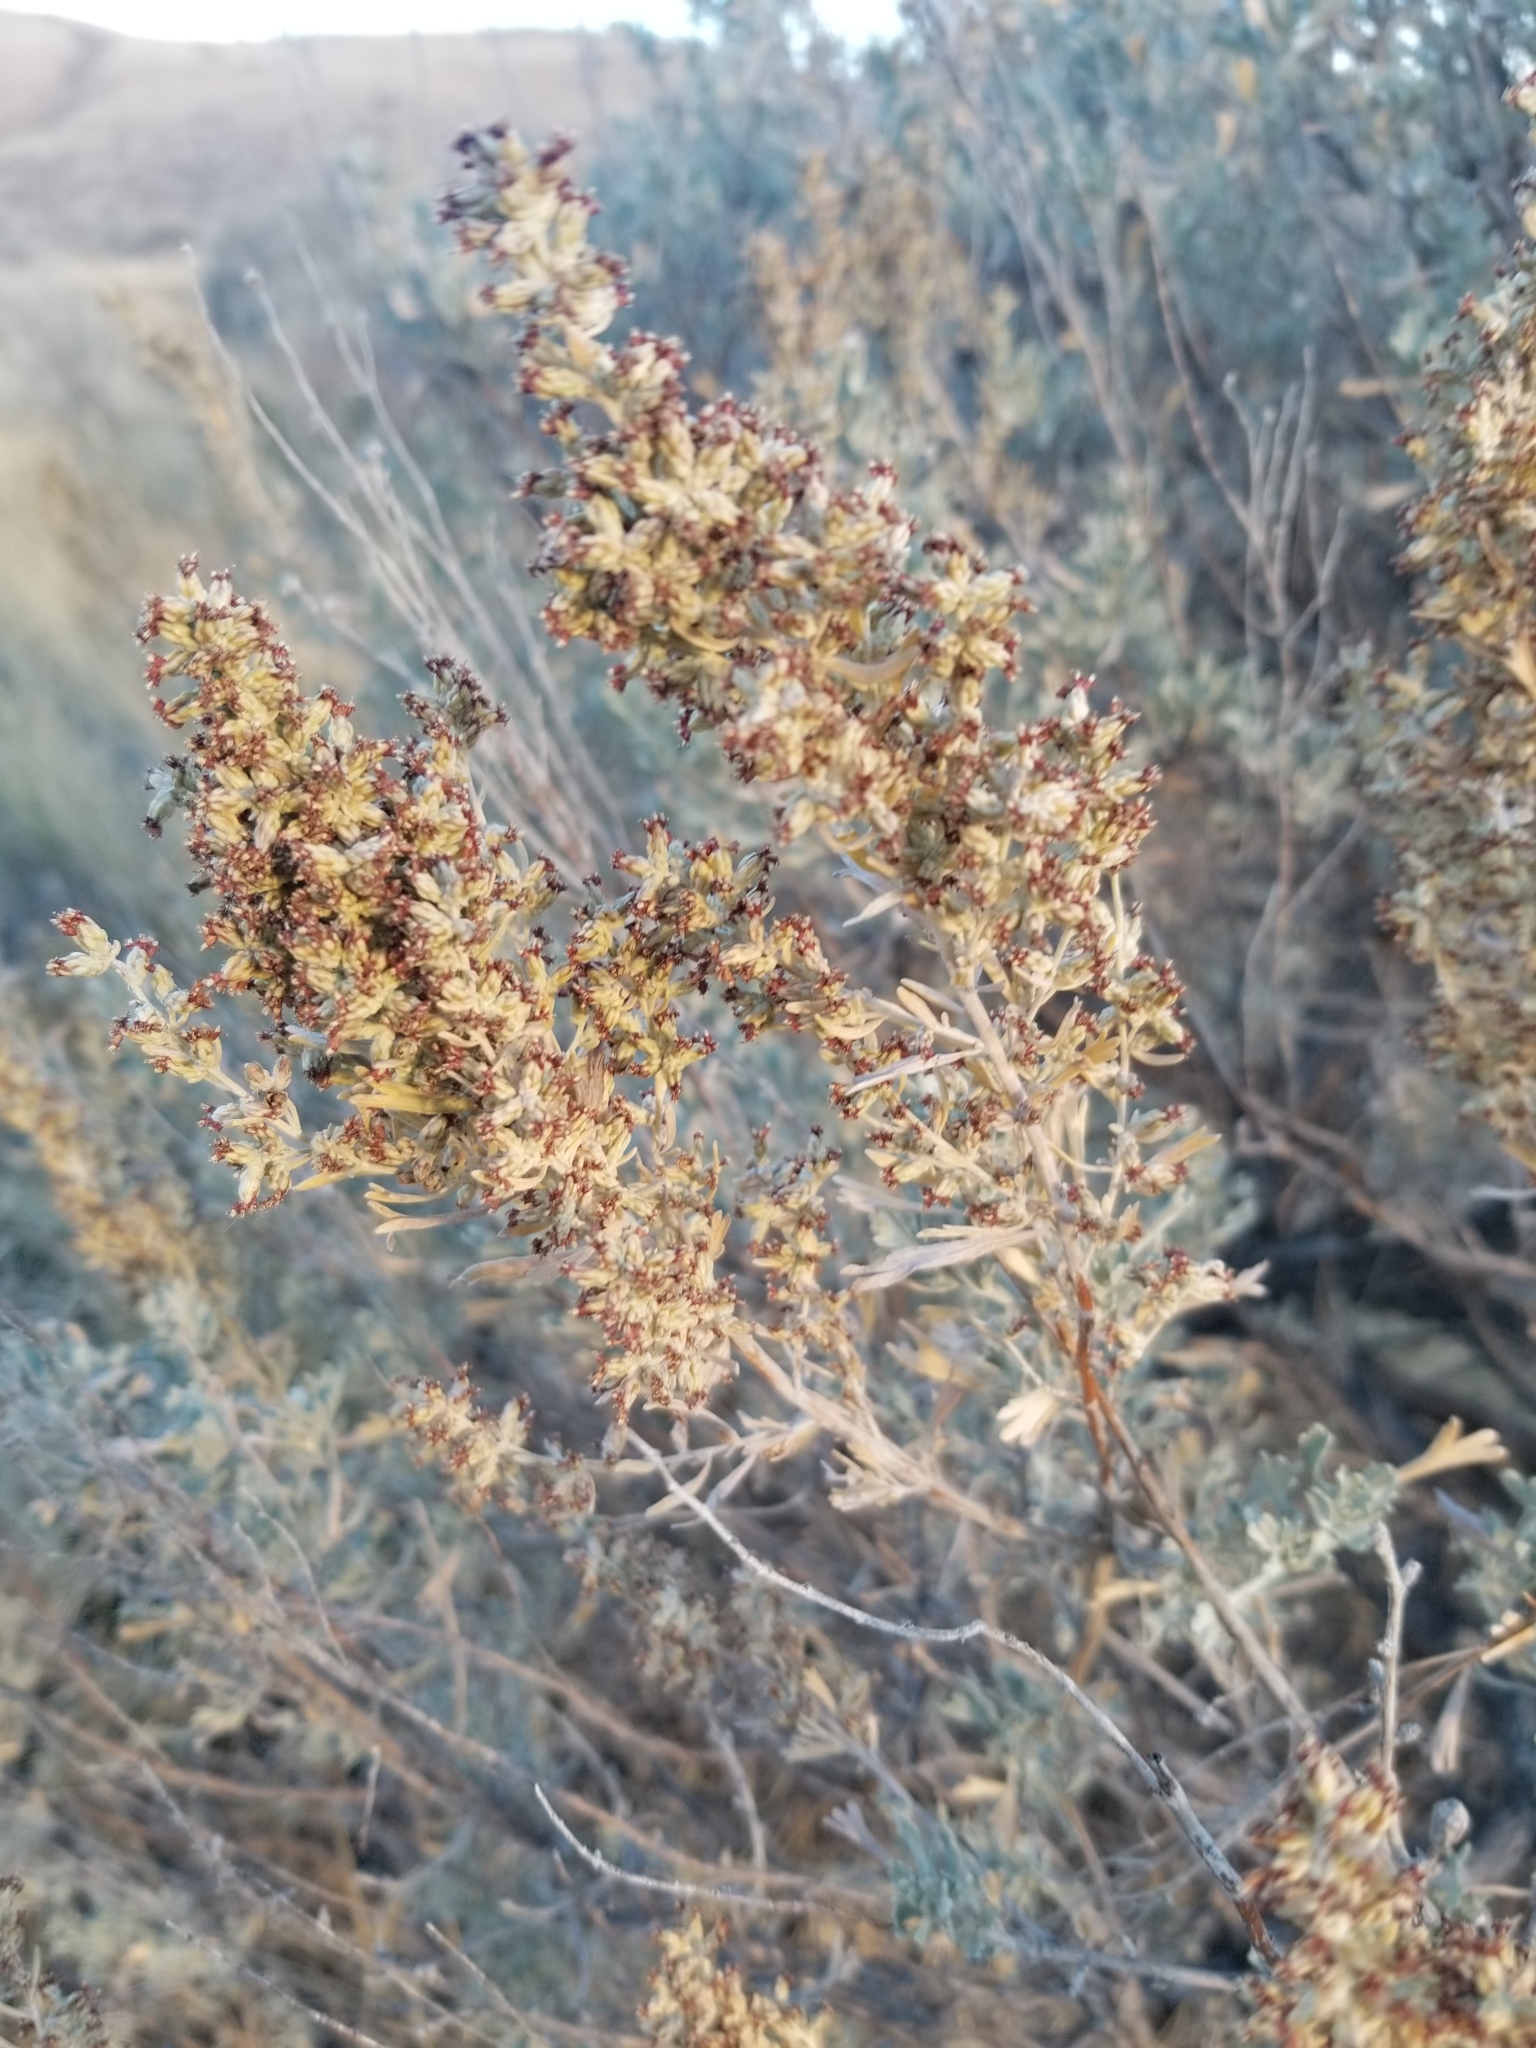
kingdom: Plantae
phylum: Tracheophyta
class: Magnoliopsida
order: Asterales
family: Asteraceae
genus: Artemisia
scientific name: Artemisia tridentata
